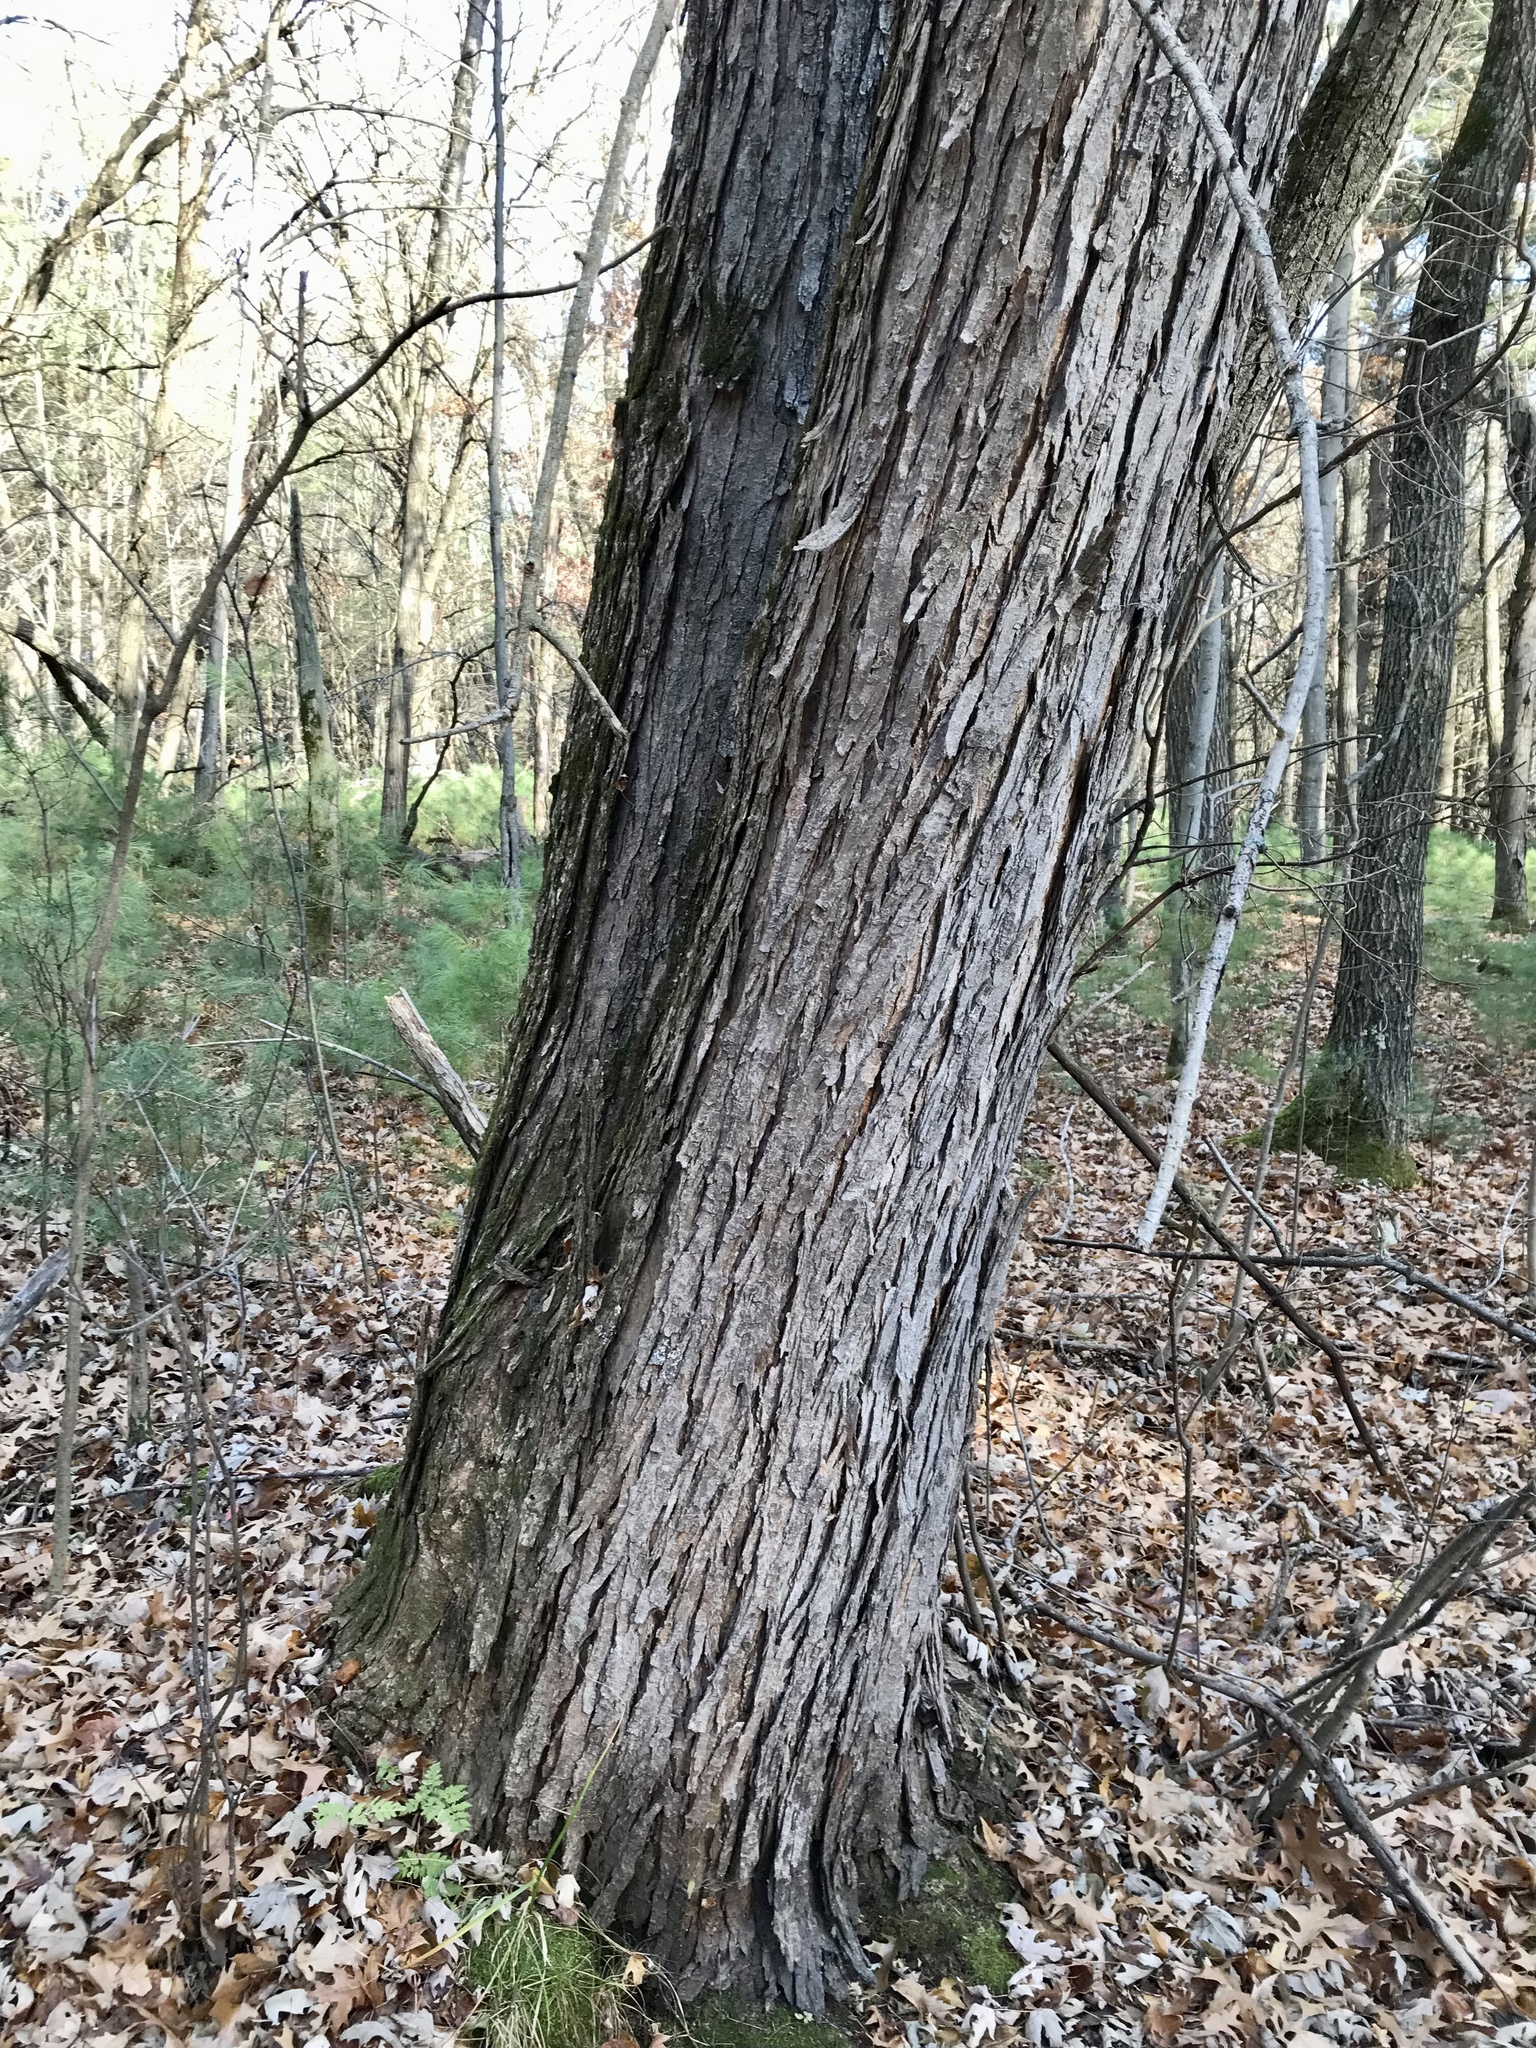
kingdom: Plantae
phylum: Tracheophyta
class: Magnoliopsida
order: Sapindales
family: Sapindaceae
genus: Acer
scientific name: Acer saccharinum
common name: Silver maple
